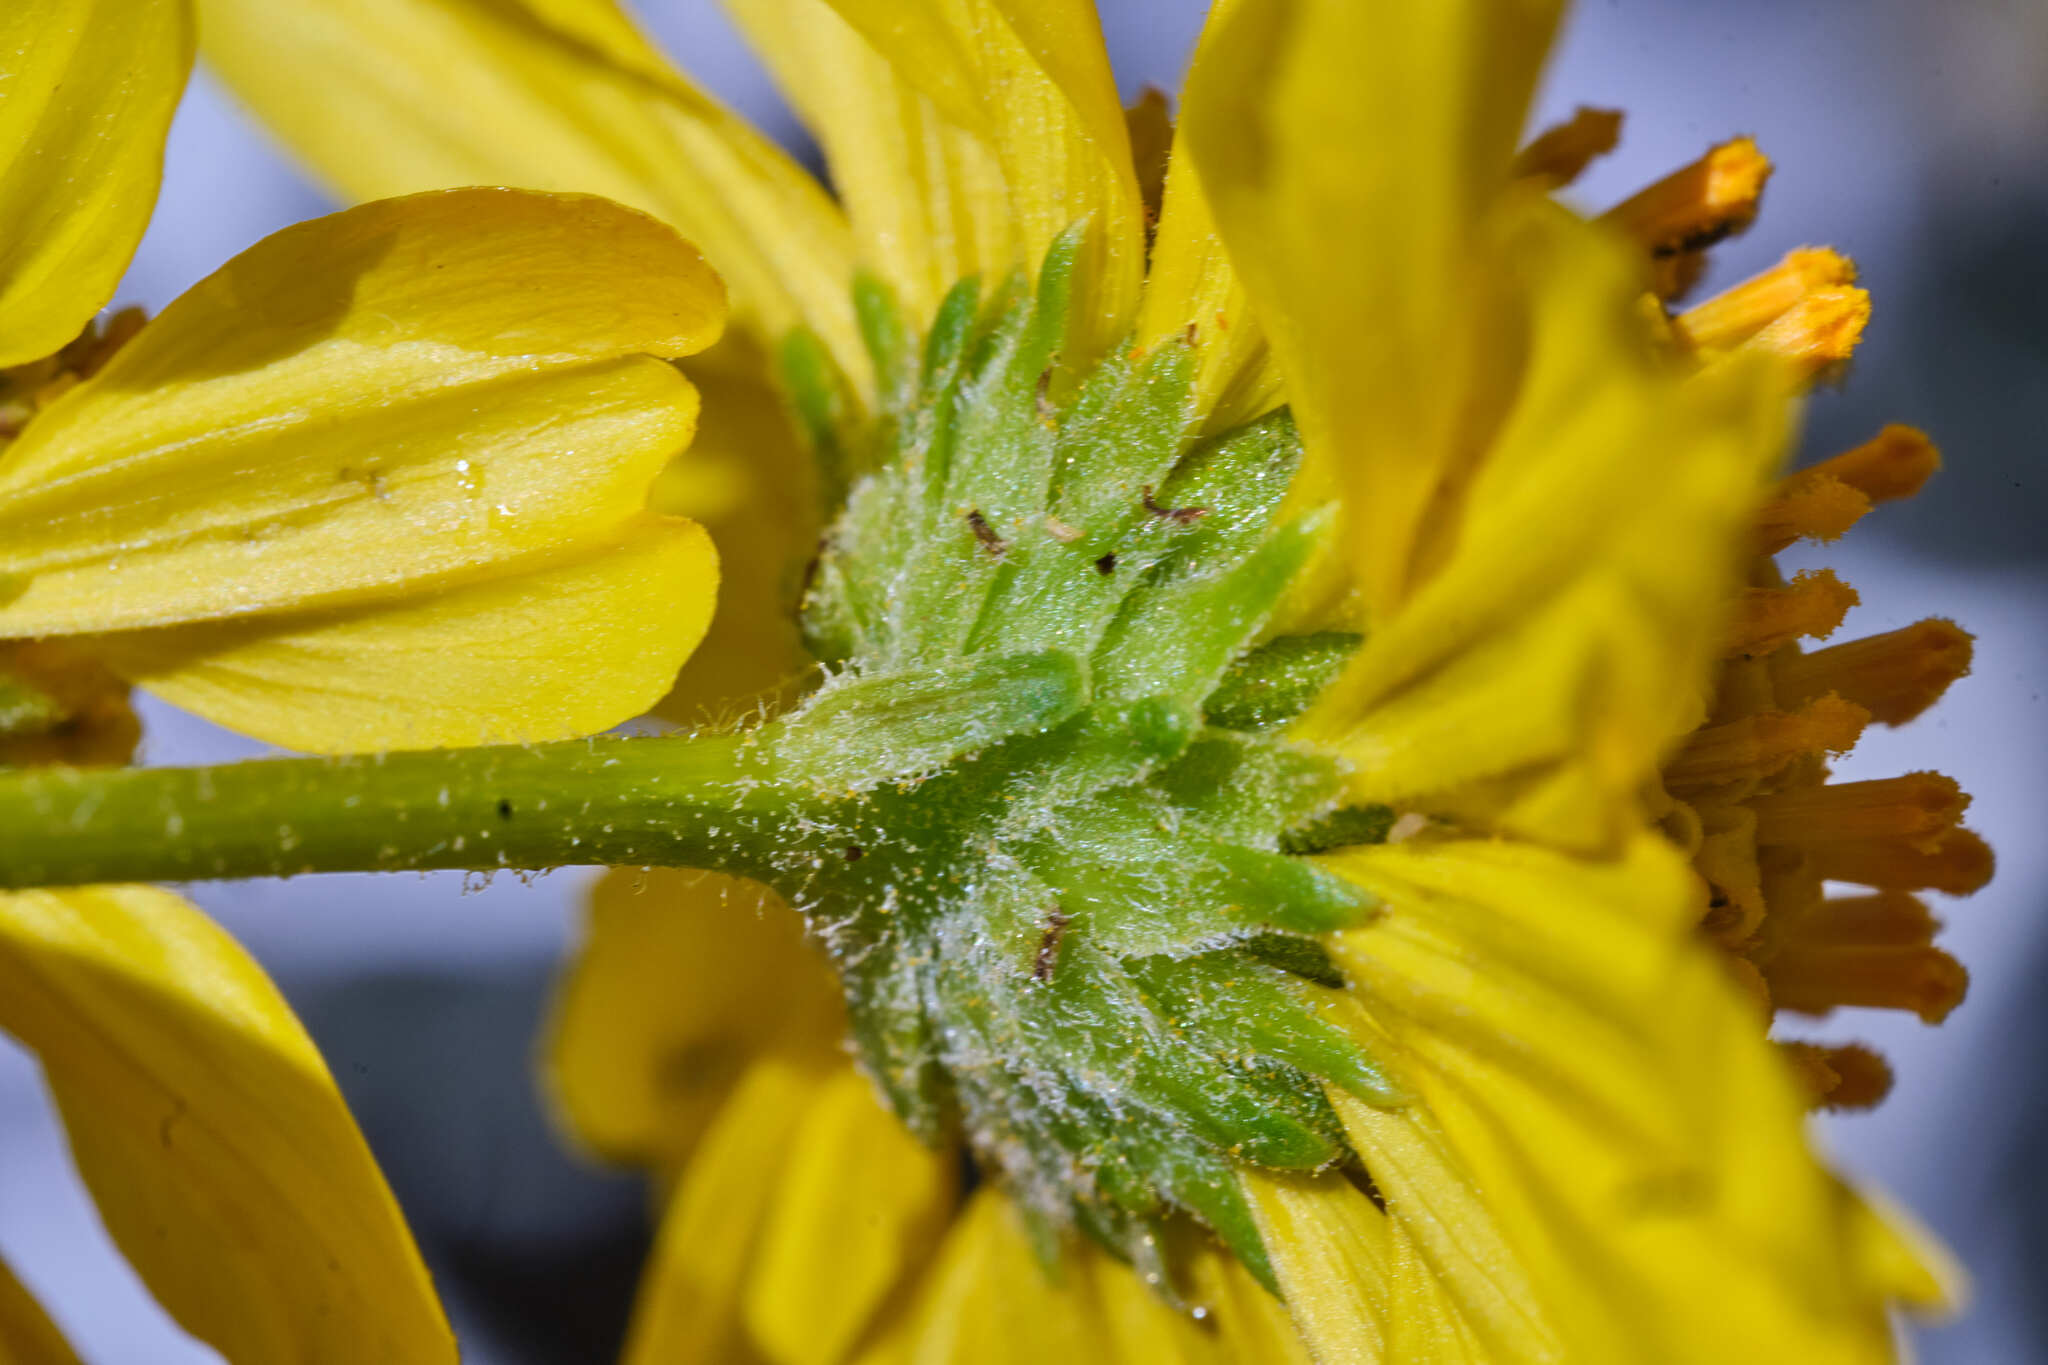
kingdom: Plantae
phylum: Tracheophyta
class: Magnoliopsida
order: Asterales
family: Asteraceae
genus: Encelia
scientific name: Encelia farinosa
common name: Brittlebush
